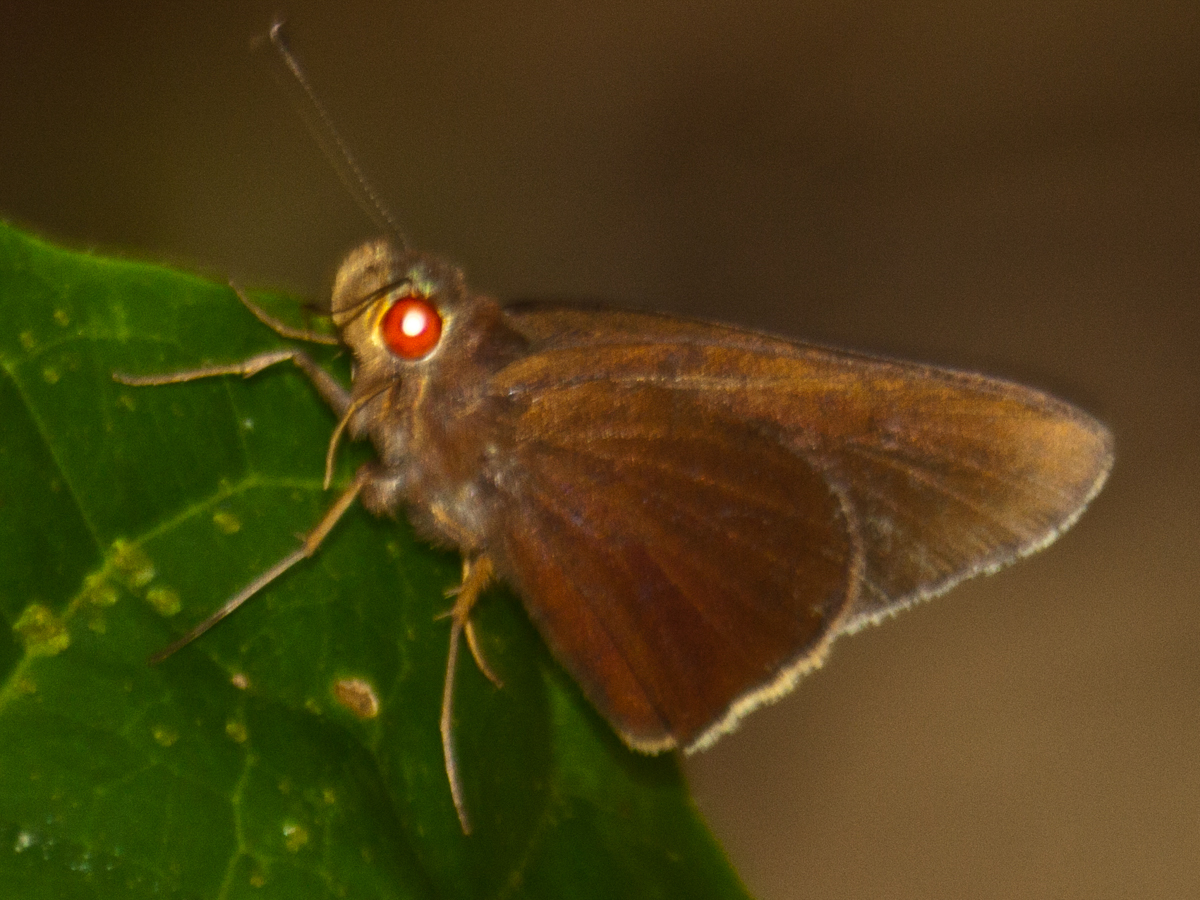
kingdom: Animalia
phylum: Arthropoda
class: Insecta
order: Lepidoptera
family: Hesperiidae
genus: Matapa
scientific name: Matapa aria
